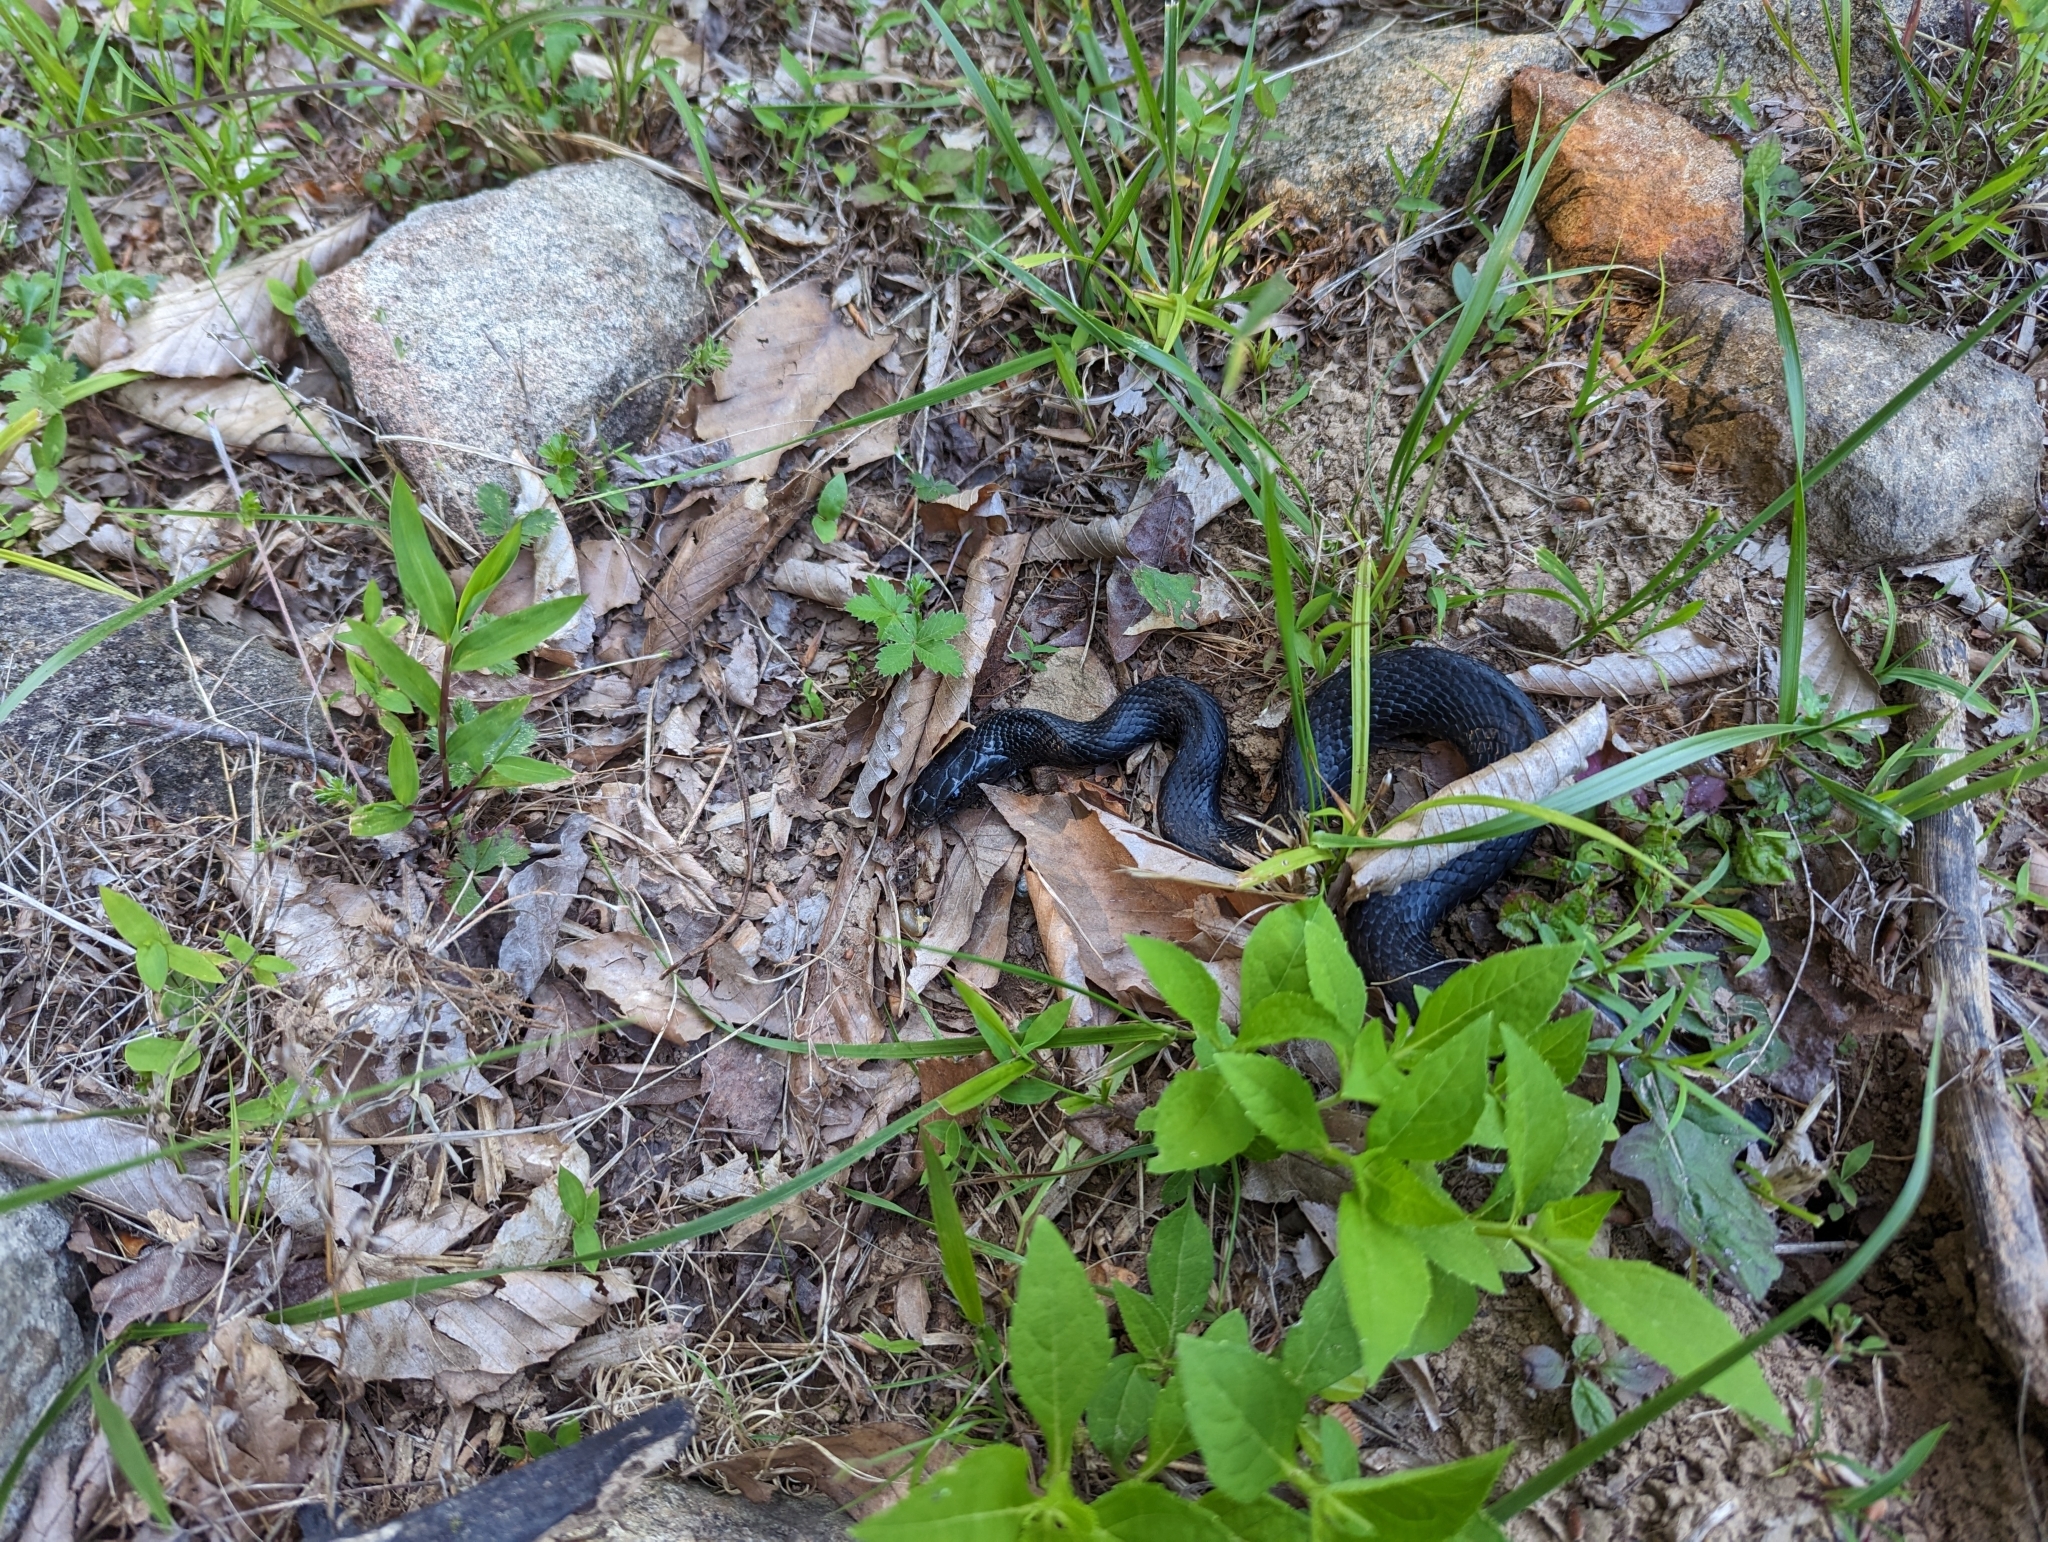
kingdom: Animalia
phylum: Chordata
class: Squamata
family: Colubridae
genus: Coluber
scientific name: Coluber constrictor
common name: Eastern racer
